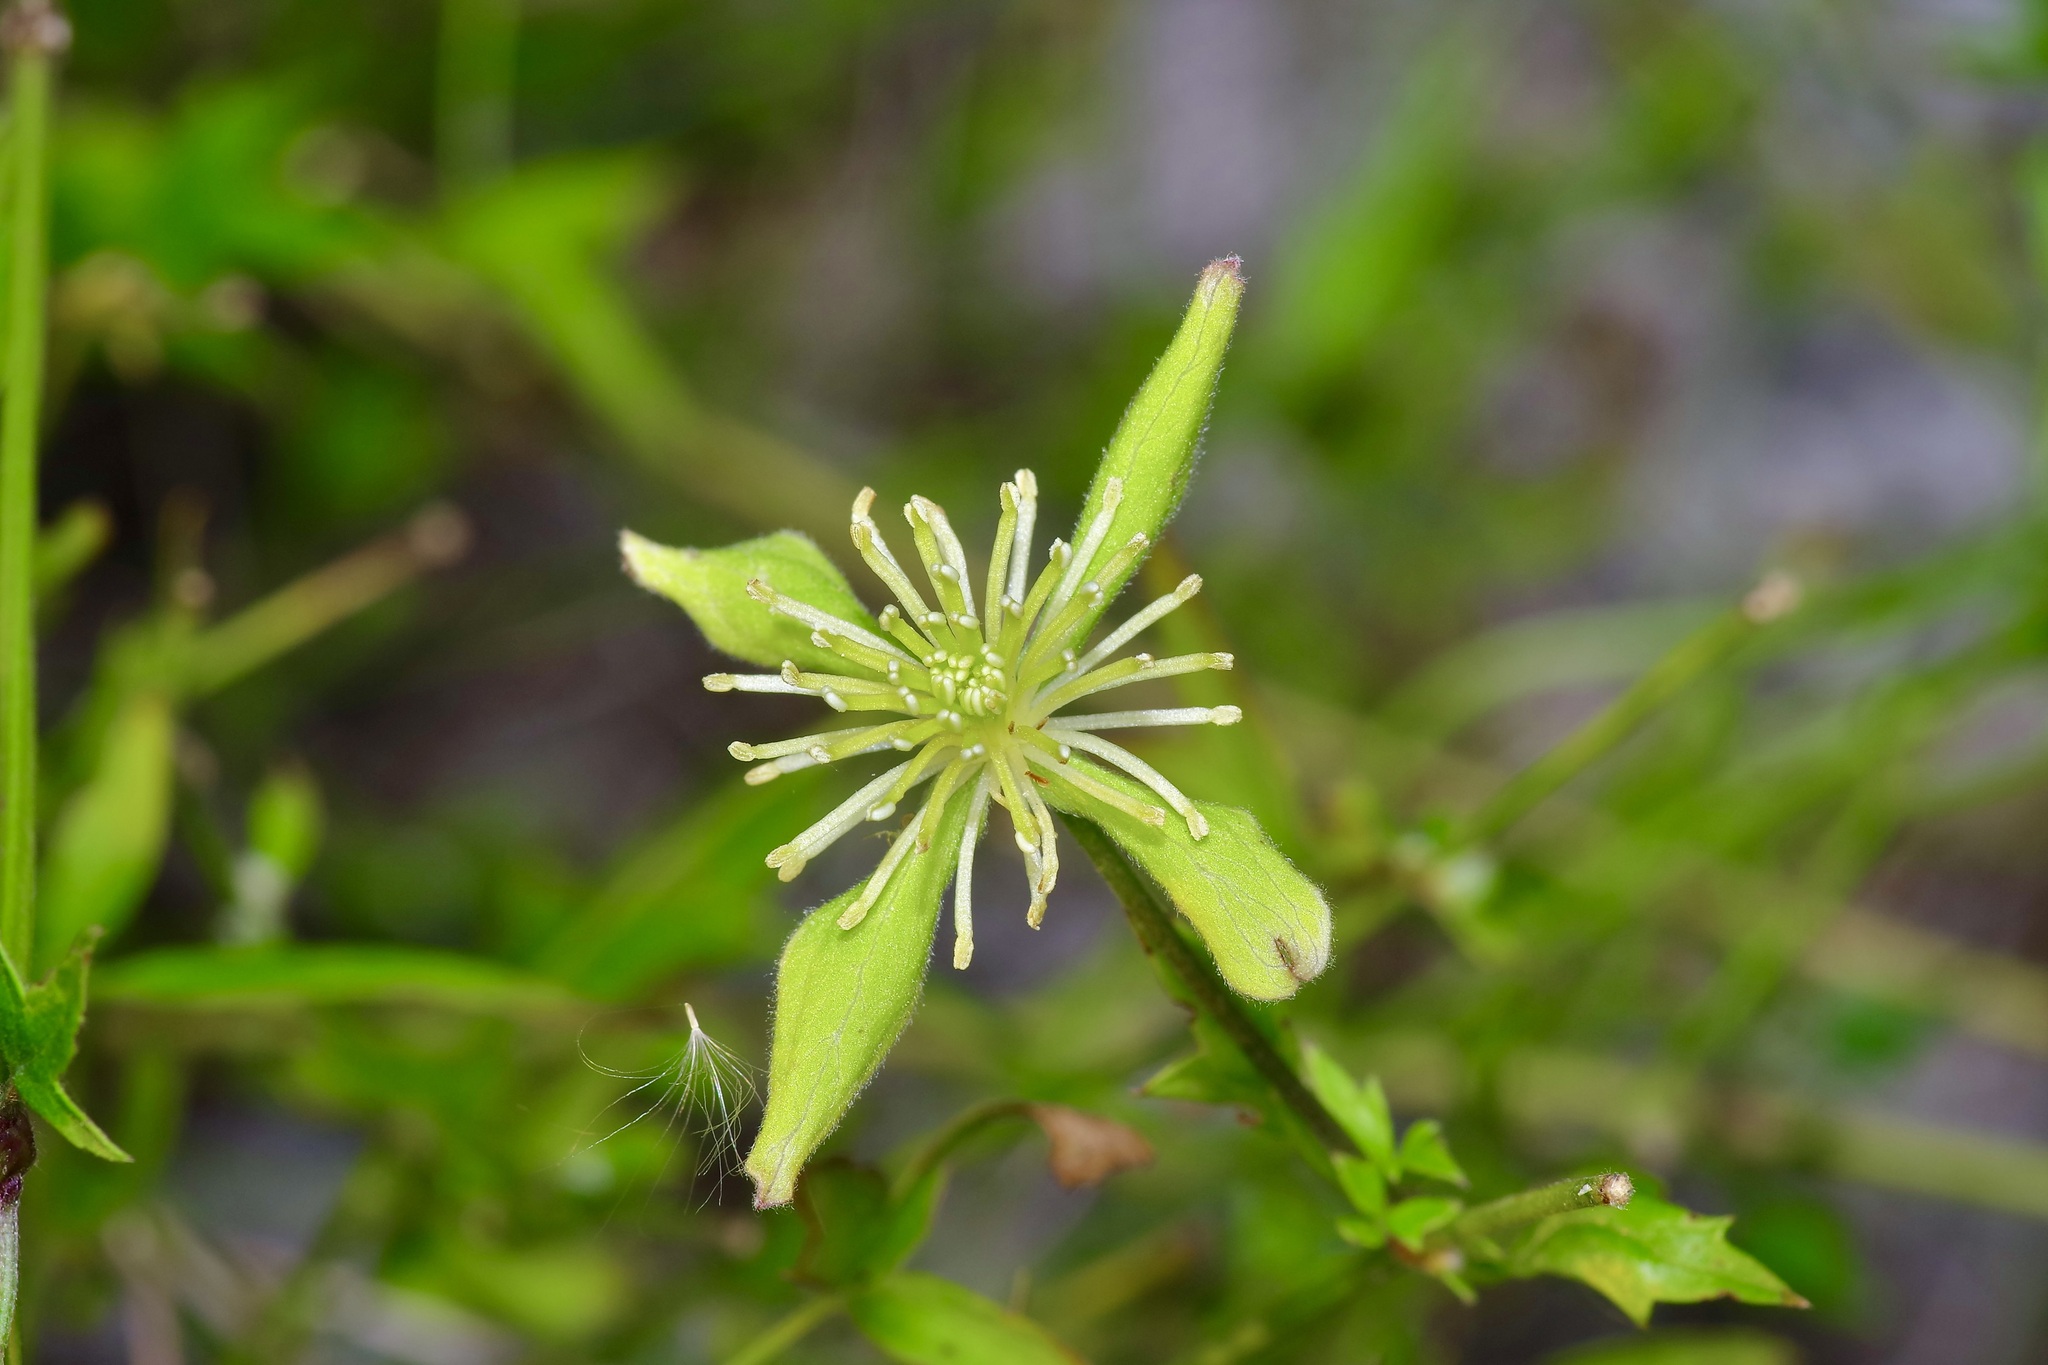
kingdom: Plantae
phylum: Tracheophyta
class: Magnoliopsida
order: Ranunculales
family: Ranunculaceae
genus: Clematis
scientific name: Clematis drummondii
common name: Texas virgin's bower
